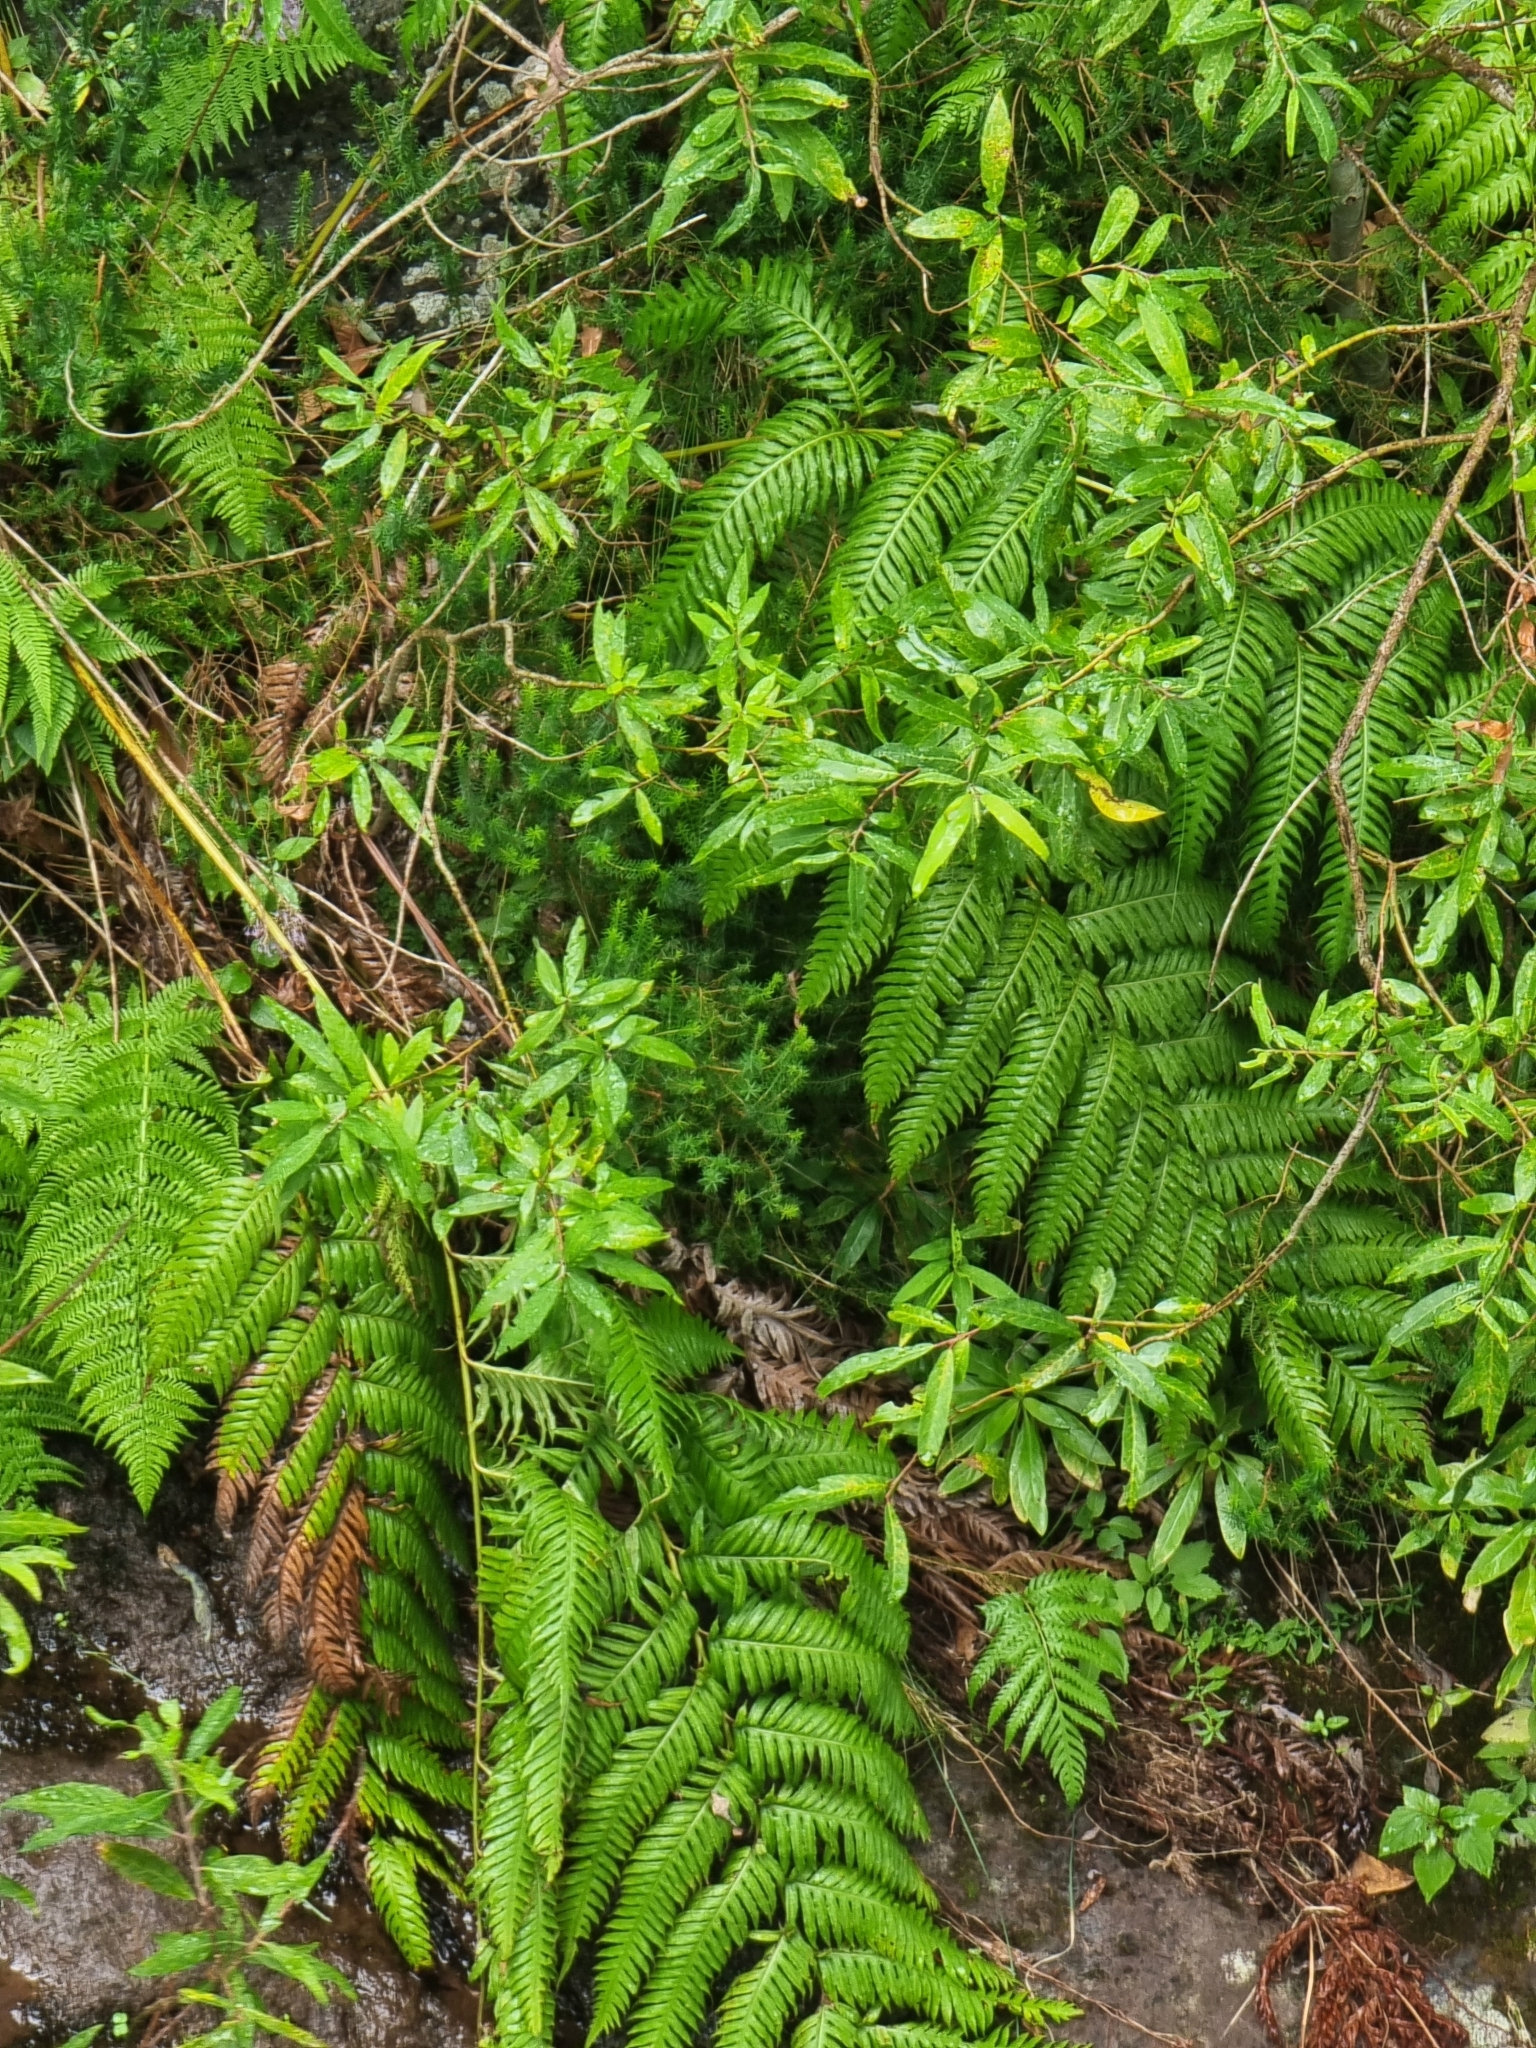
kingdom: Plantae
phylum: Tracheophyta
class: Polypodiopsida
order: Polypodiales
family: Blechnaceae
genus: Woodwardia
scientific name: Woodwardia radicans
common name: Rooting chainfern
